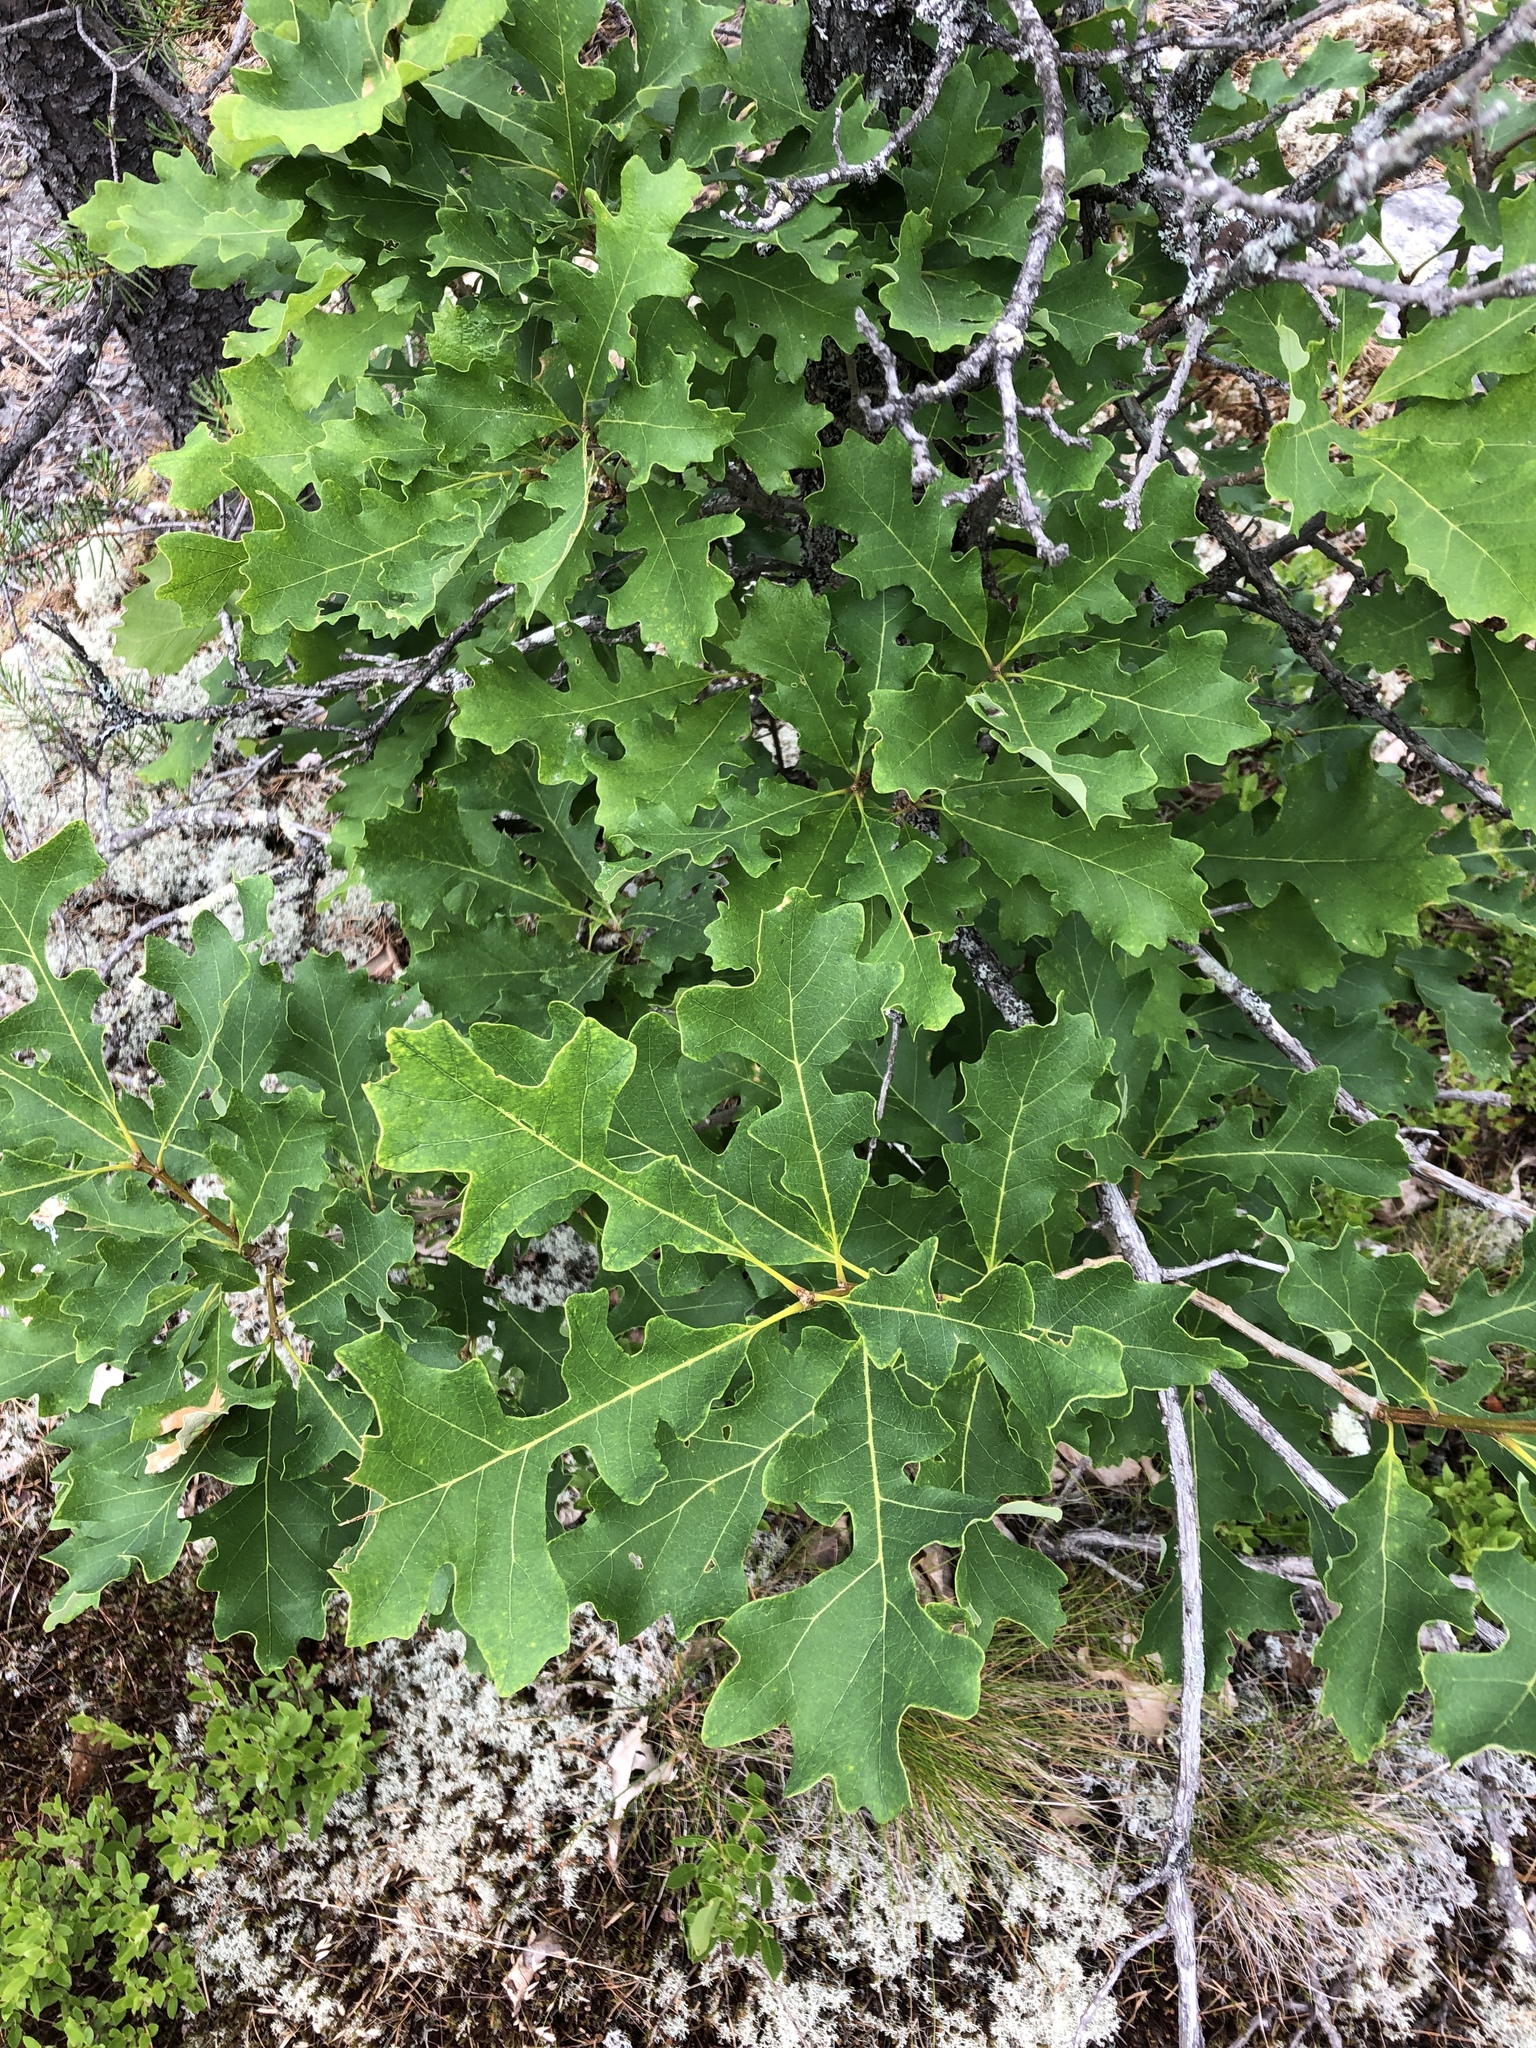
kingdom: Plantae
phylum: Tracheophyta
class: Magnoliopsida
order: Fagales
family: Fagaceae
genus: Quercus
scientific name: Quercus macrocarpa
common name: Bur oak
